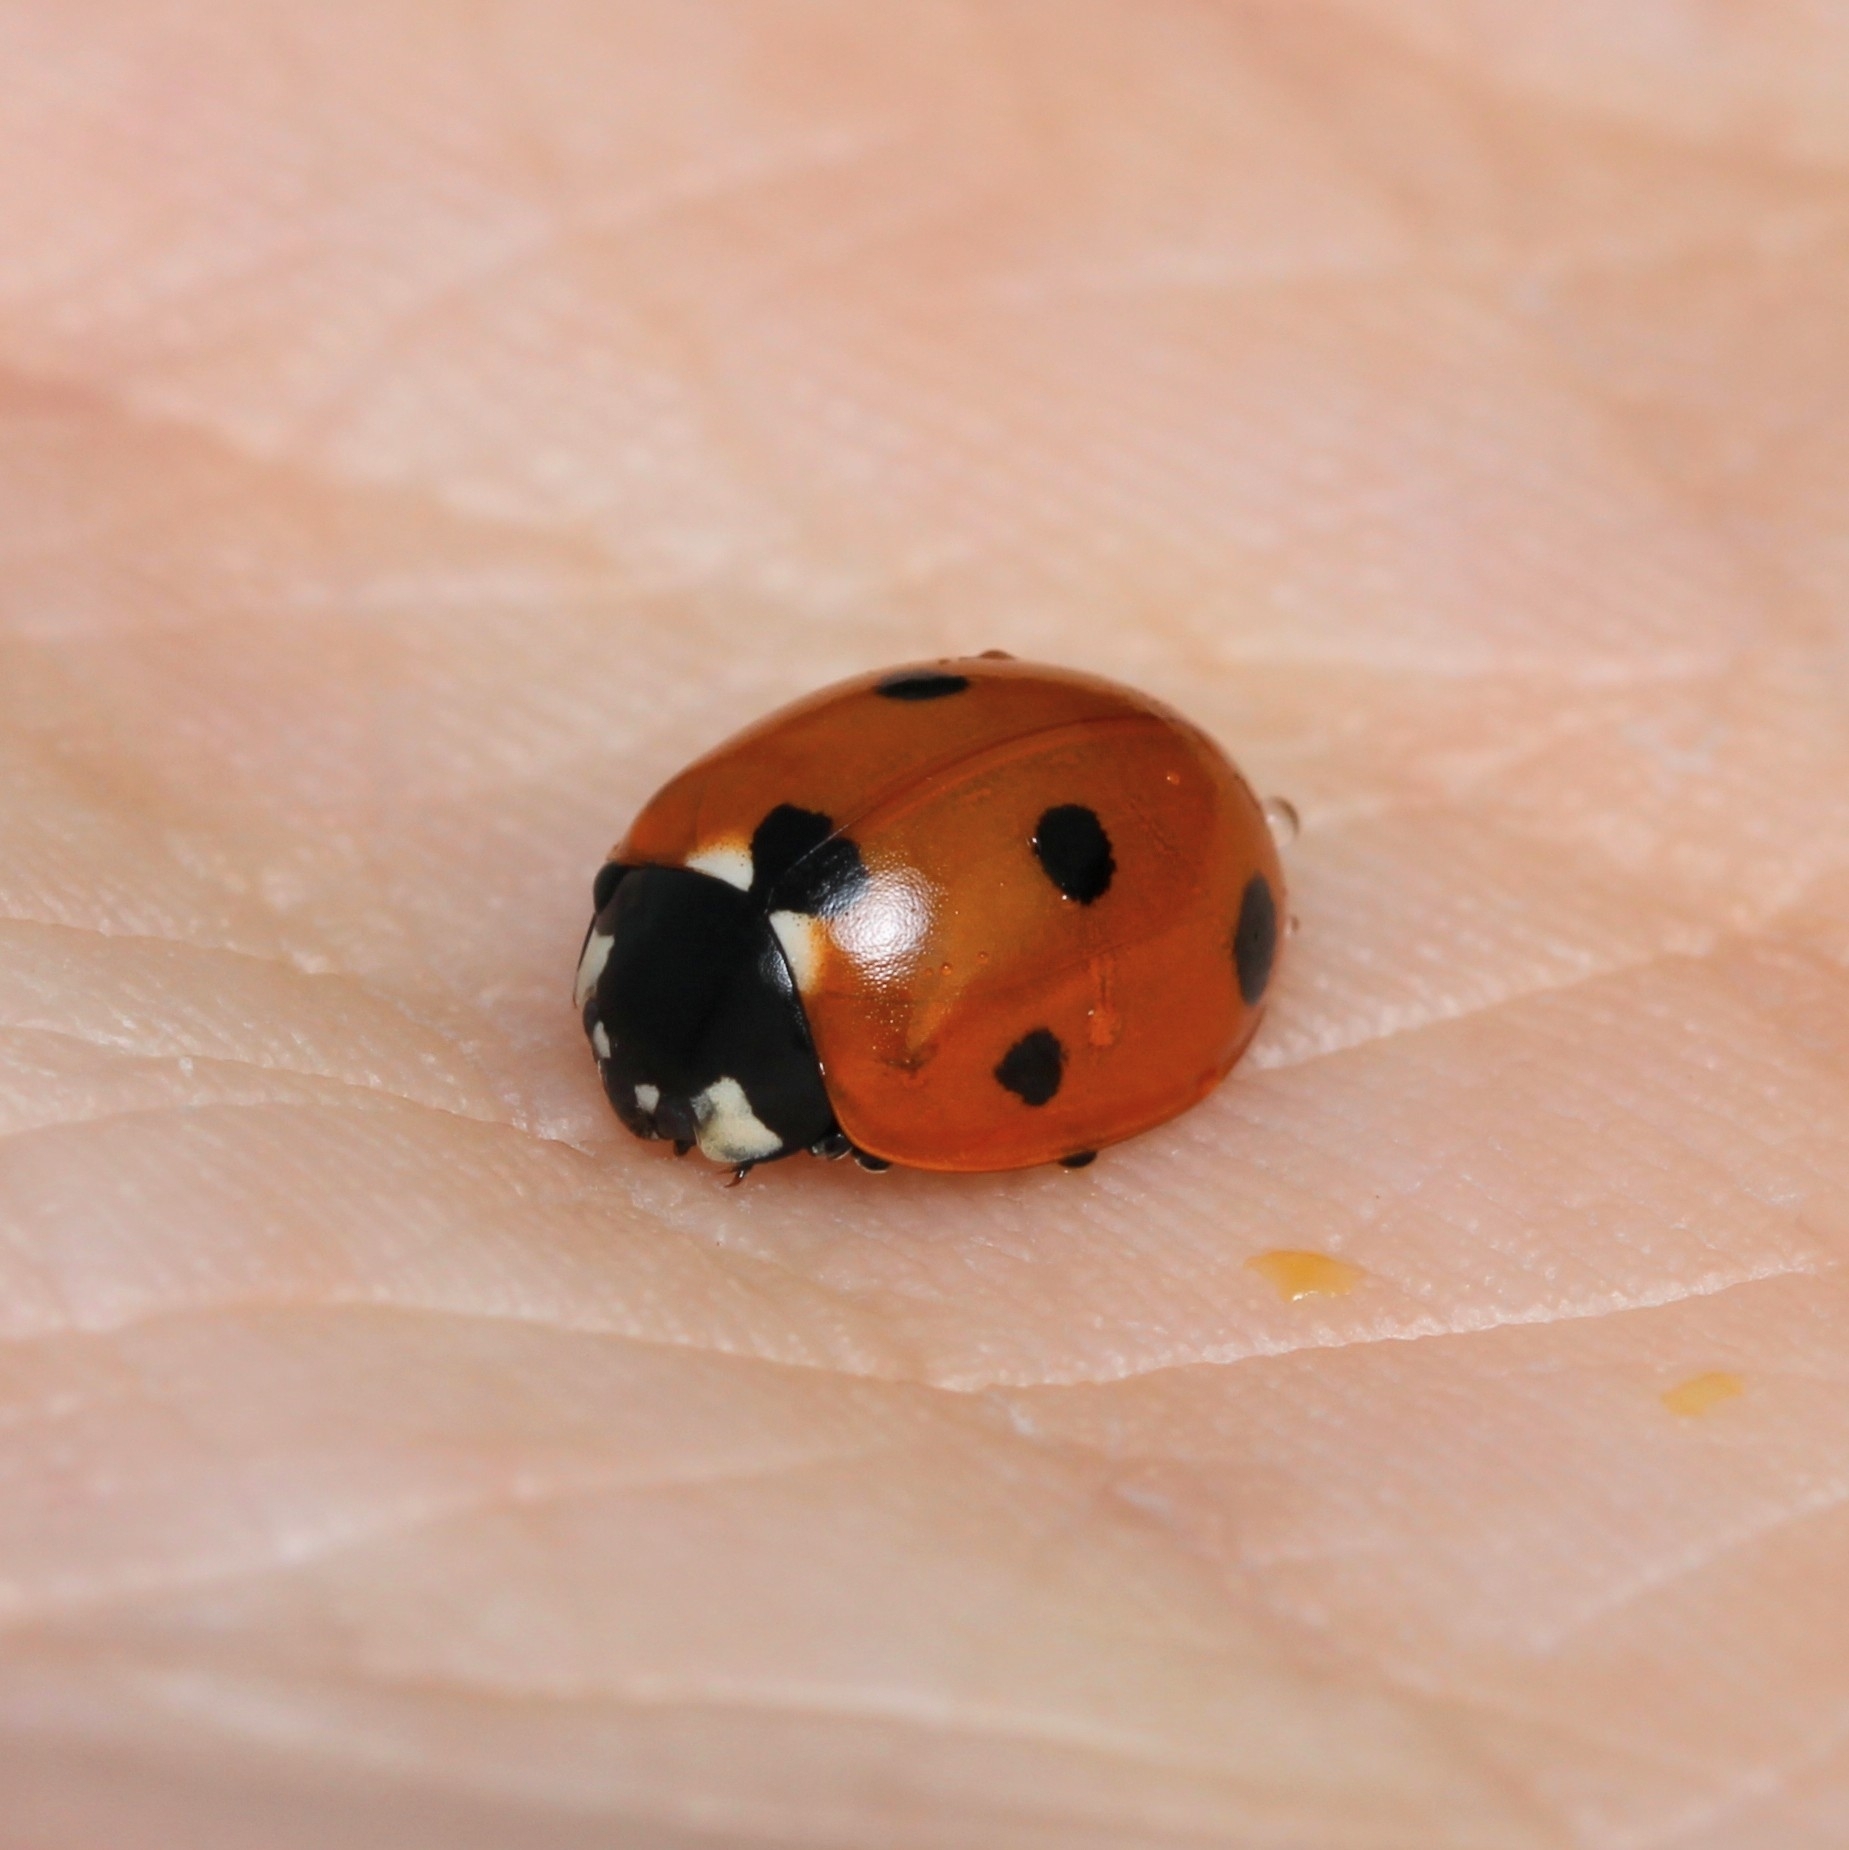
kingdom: Animalia
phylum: Arthropoda
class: Insecta
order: Coleoptera
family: Coccinellidae
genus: Coccinella
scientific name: Coccinella septempunctata
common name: Sevenspotted lady beetle
